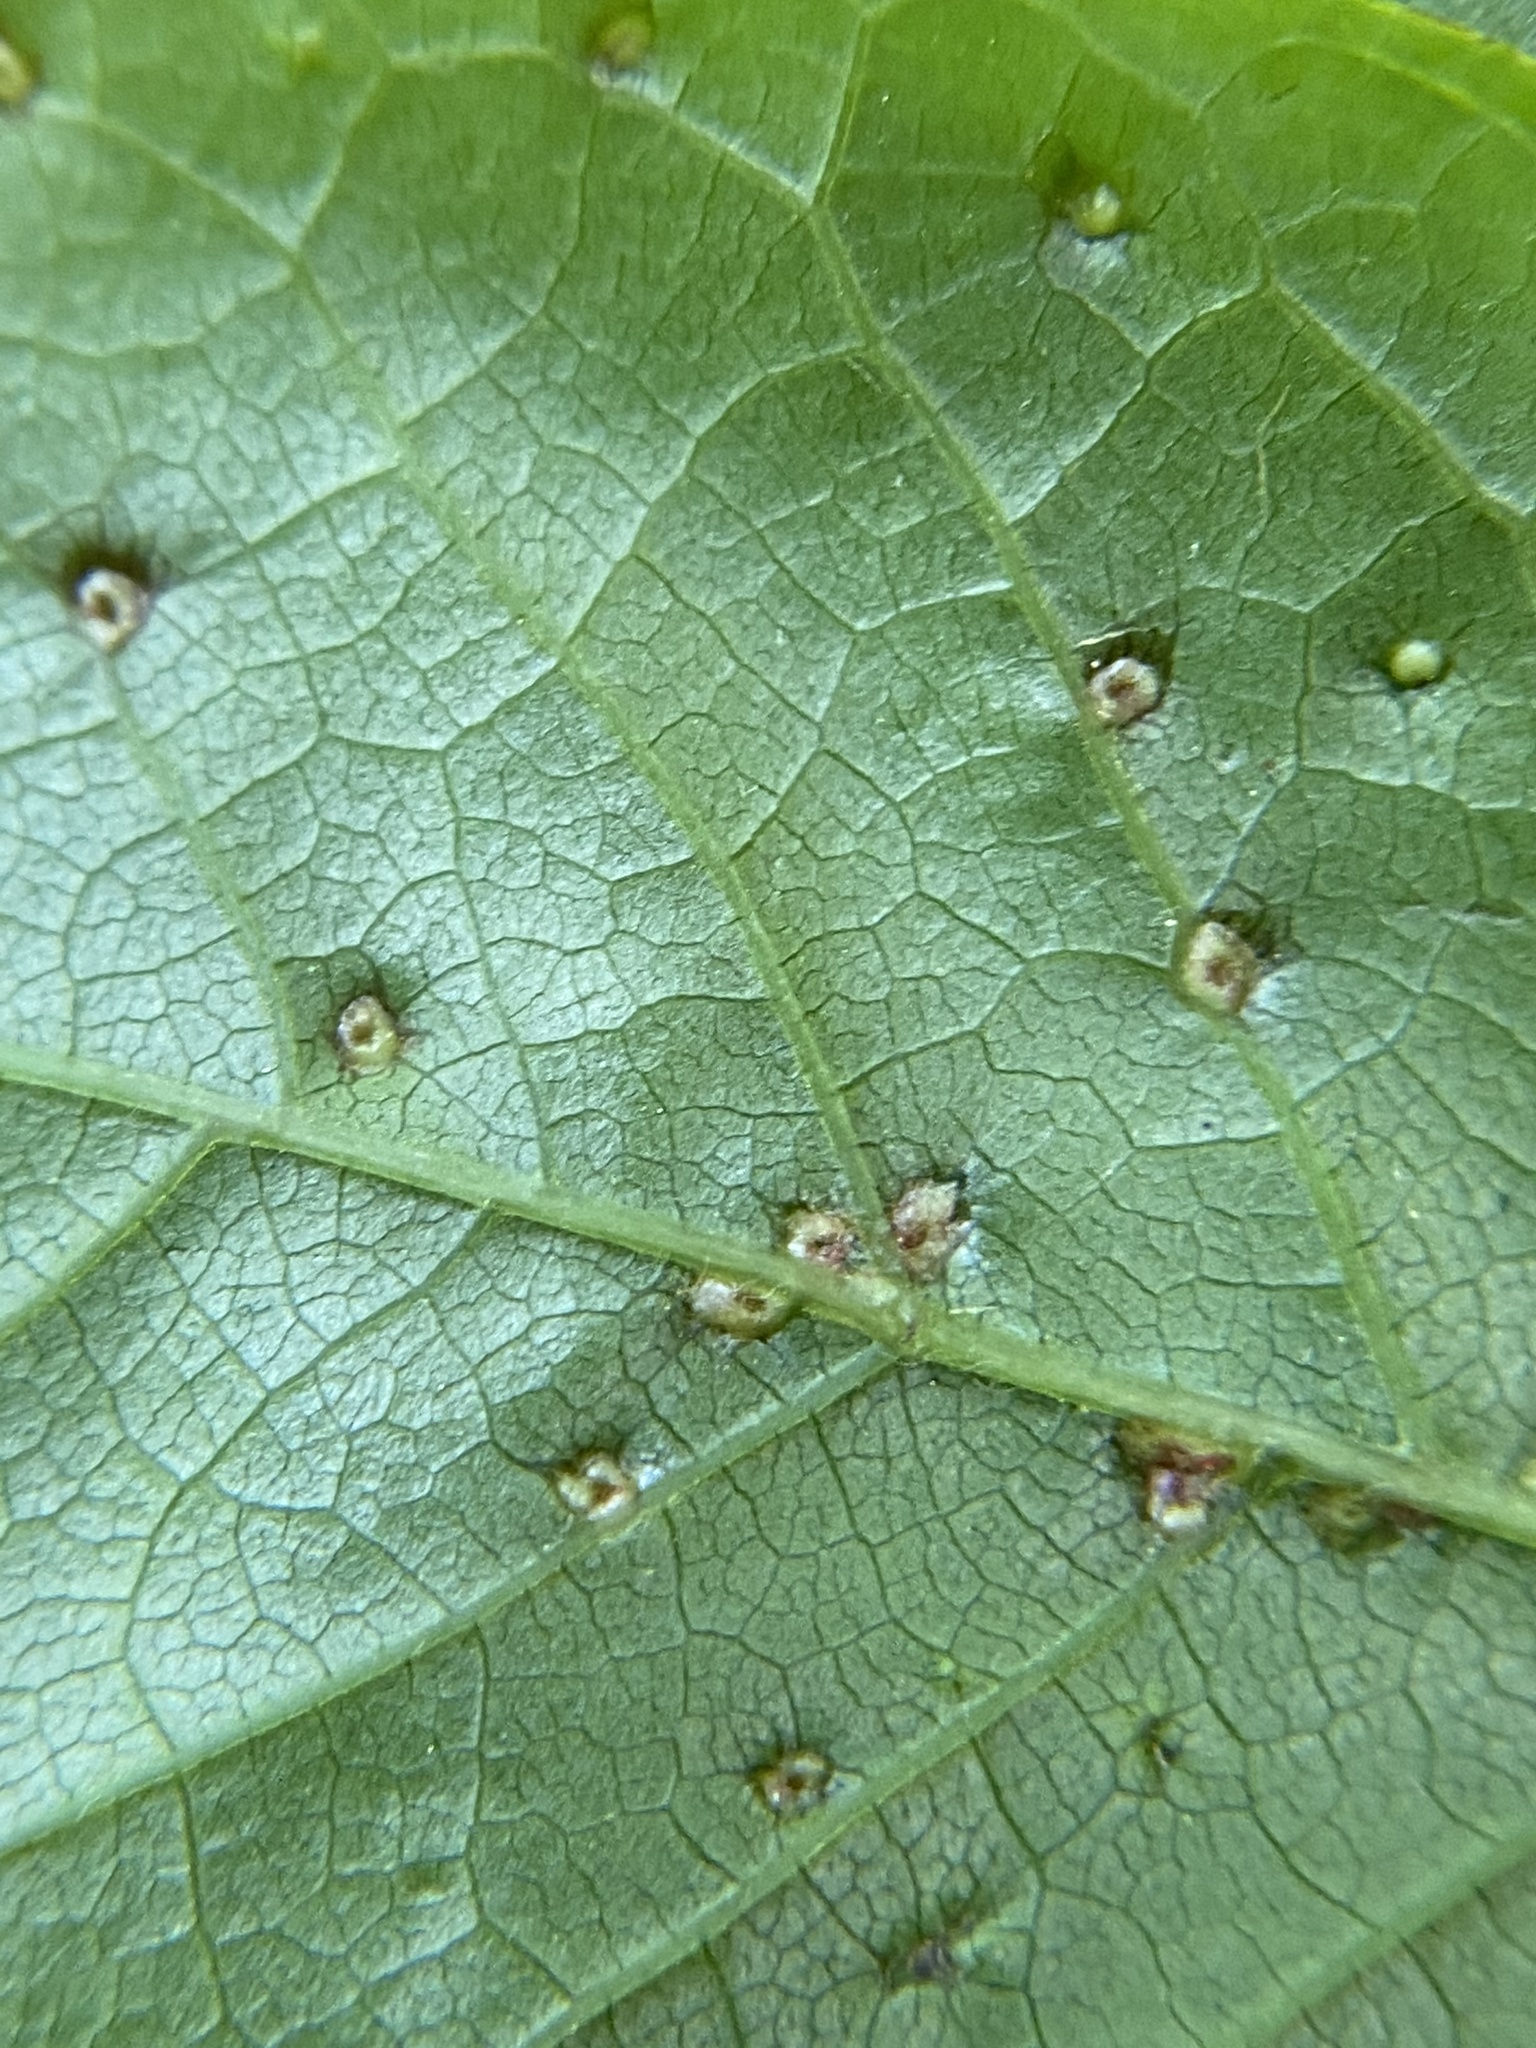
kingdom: Animalia
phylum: Arthropoda
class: Arachnida
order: Trombidiformes
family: Eriophyidae
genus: Aceria
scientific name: Aceria
